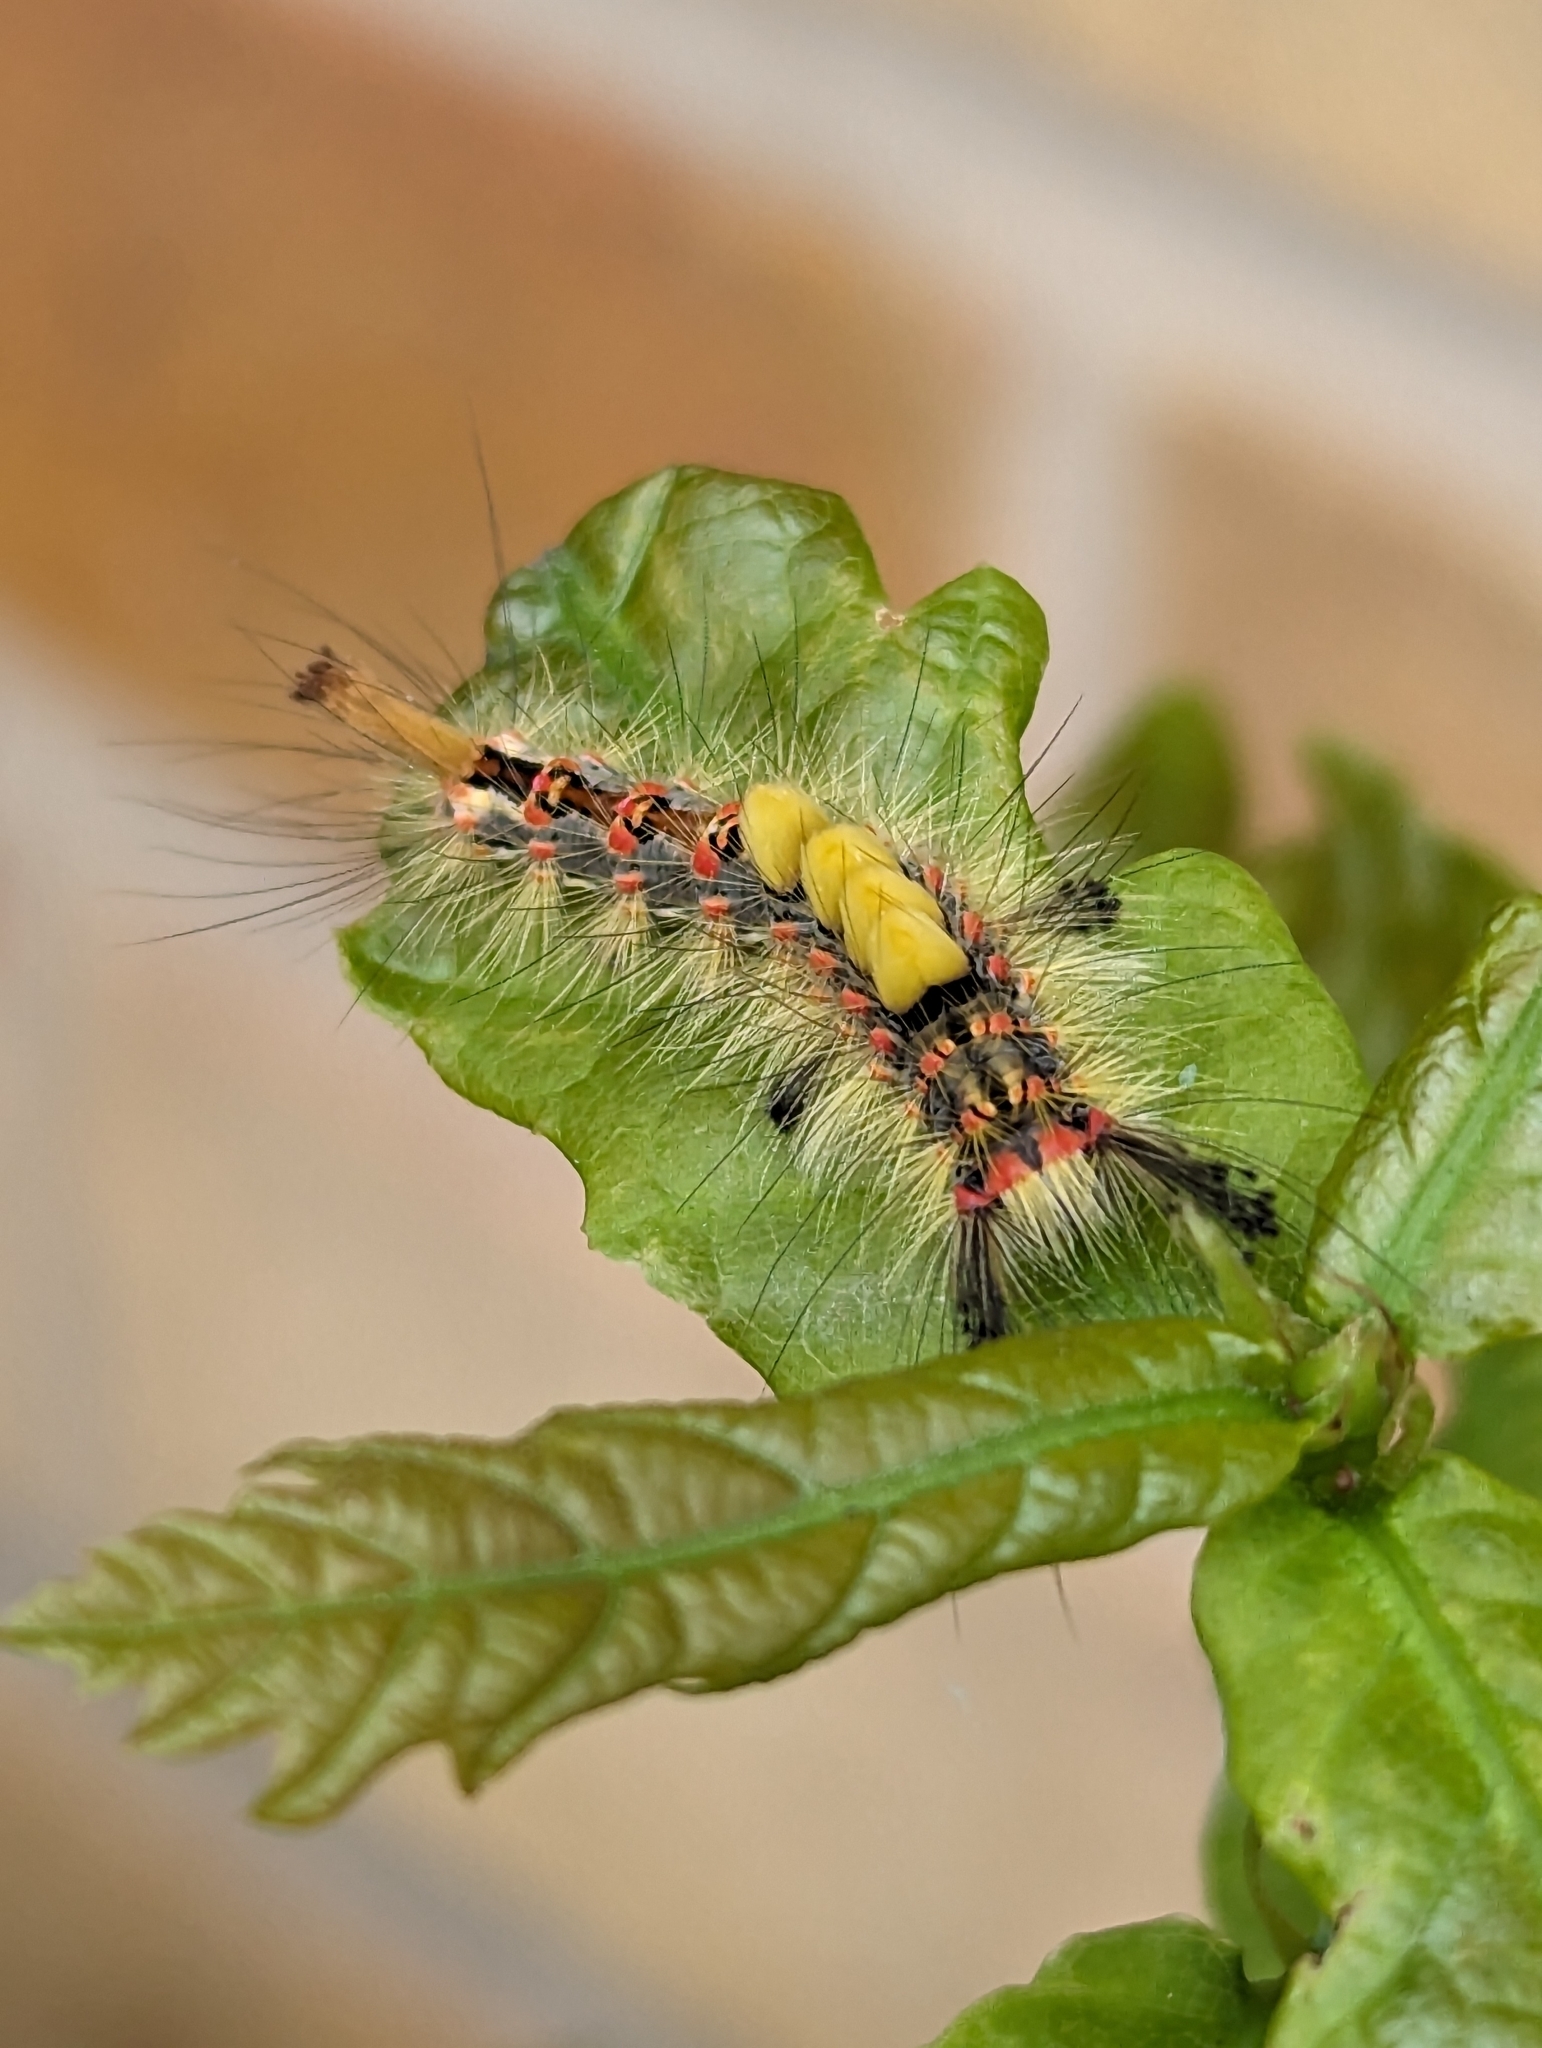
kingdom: Animalia
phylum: Arthropoda
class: Insecta
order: Lepidoptera
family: Erebidae
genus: Orgyia
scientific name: Orgyia antiqua
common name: Vapourer
